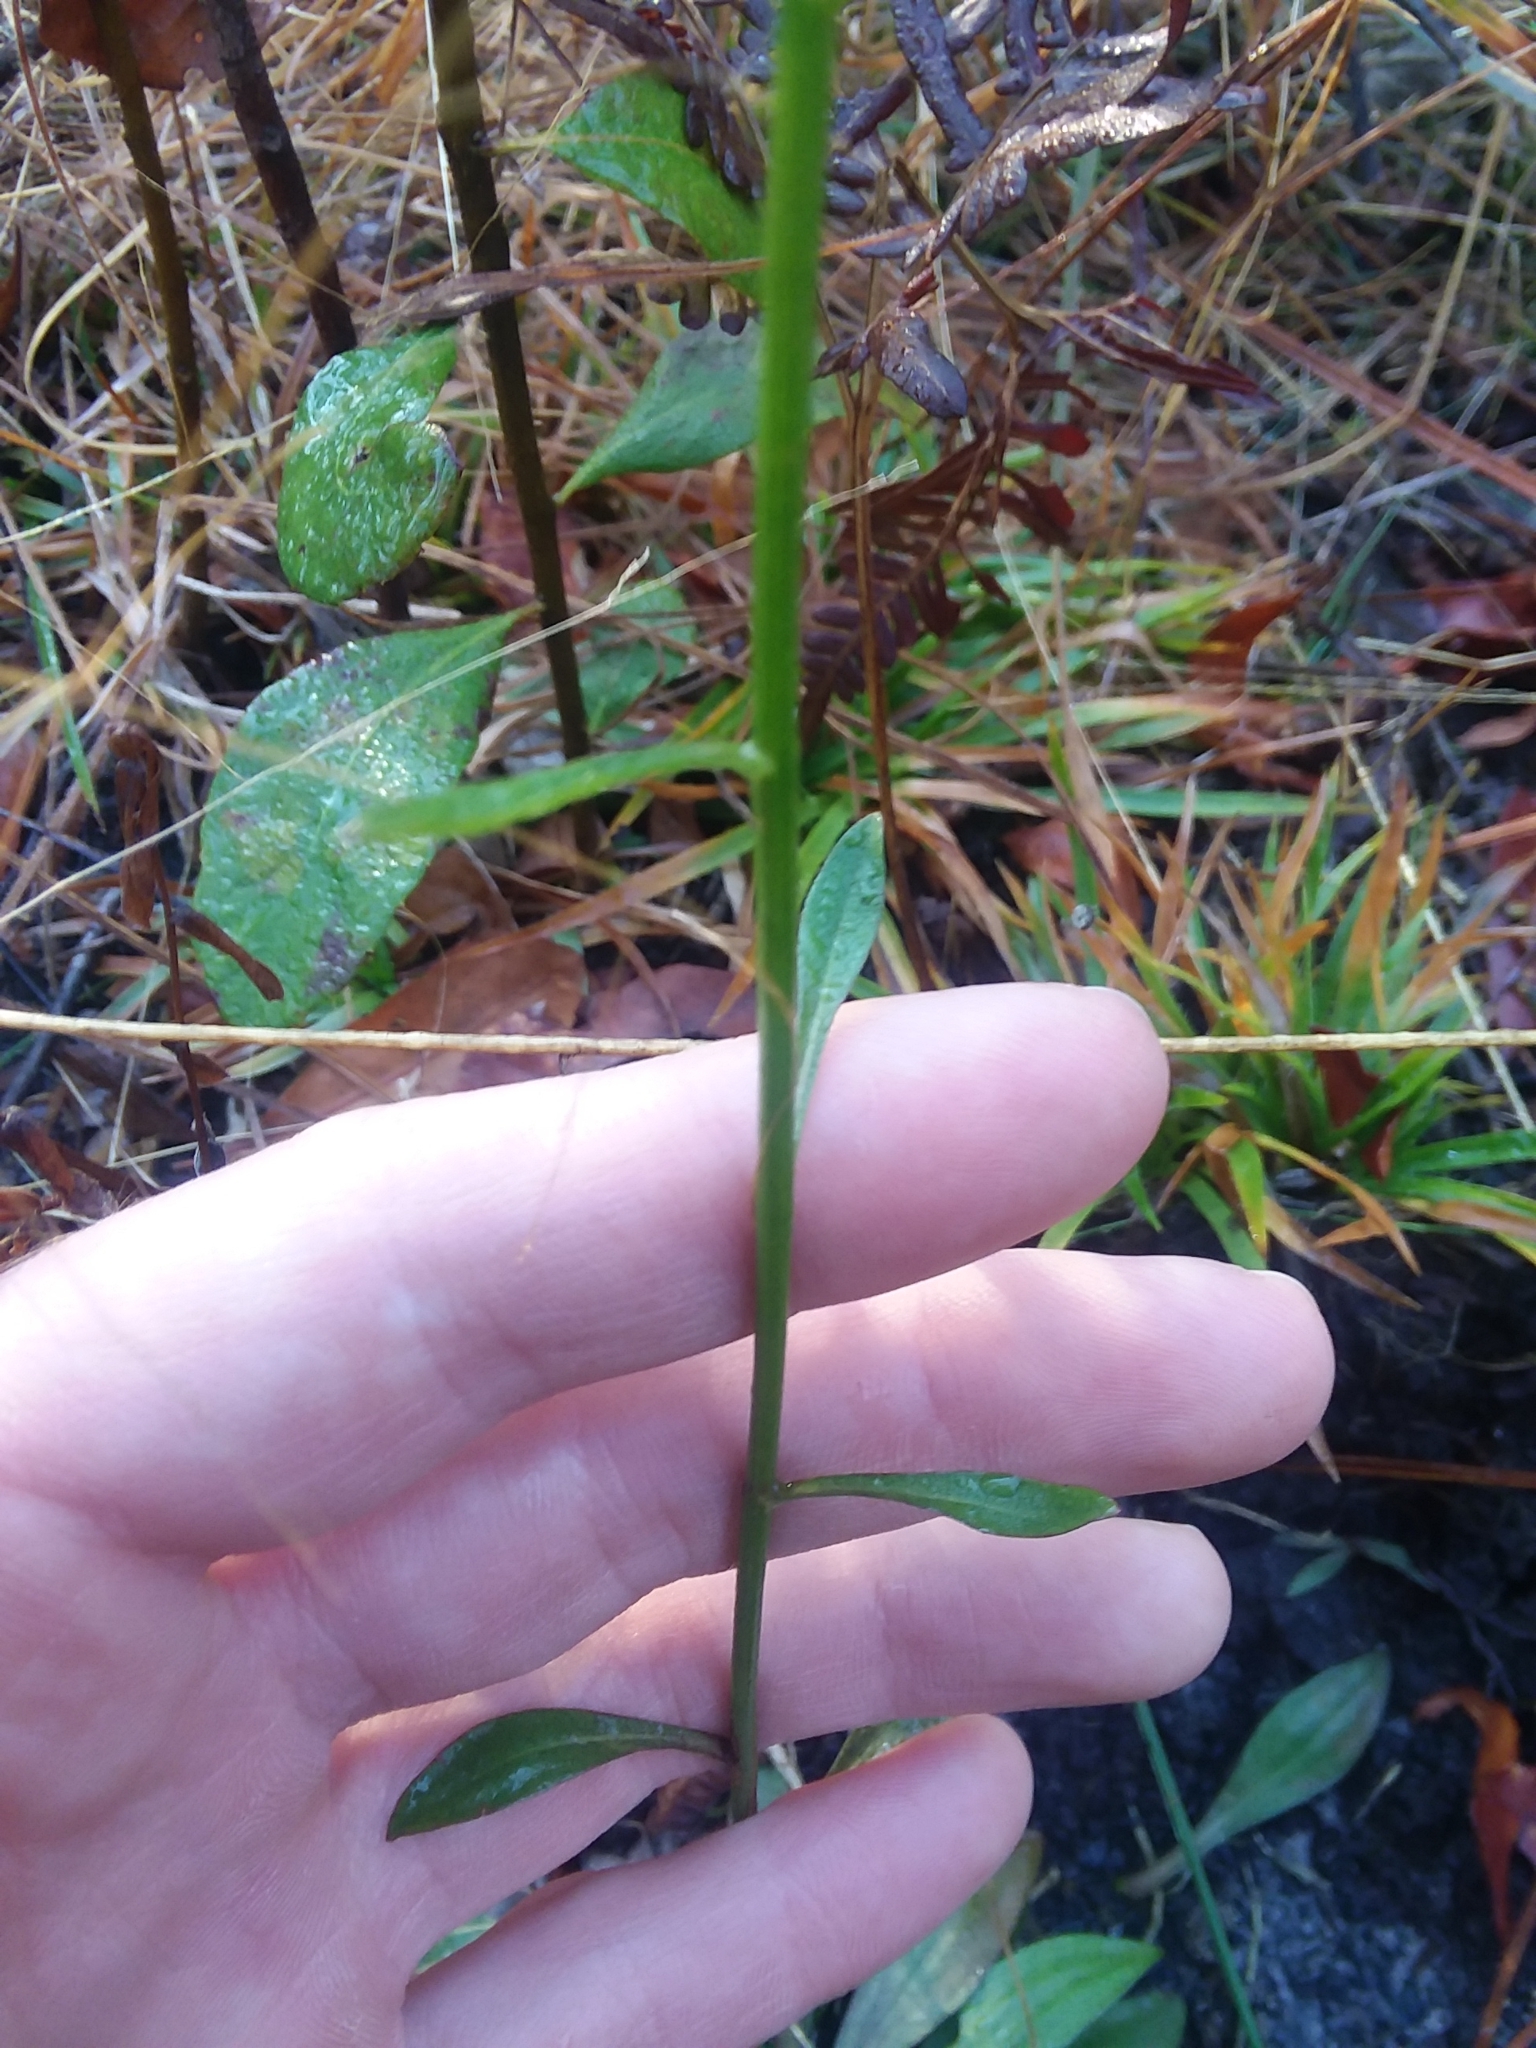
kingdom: Plantae
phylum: Tracheophyta
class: Magnoliopsida
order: Asterales
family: Asteraceae
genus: Bigelowia
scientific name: Bigelowia nudata
